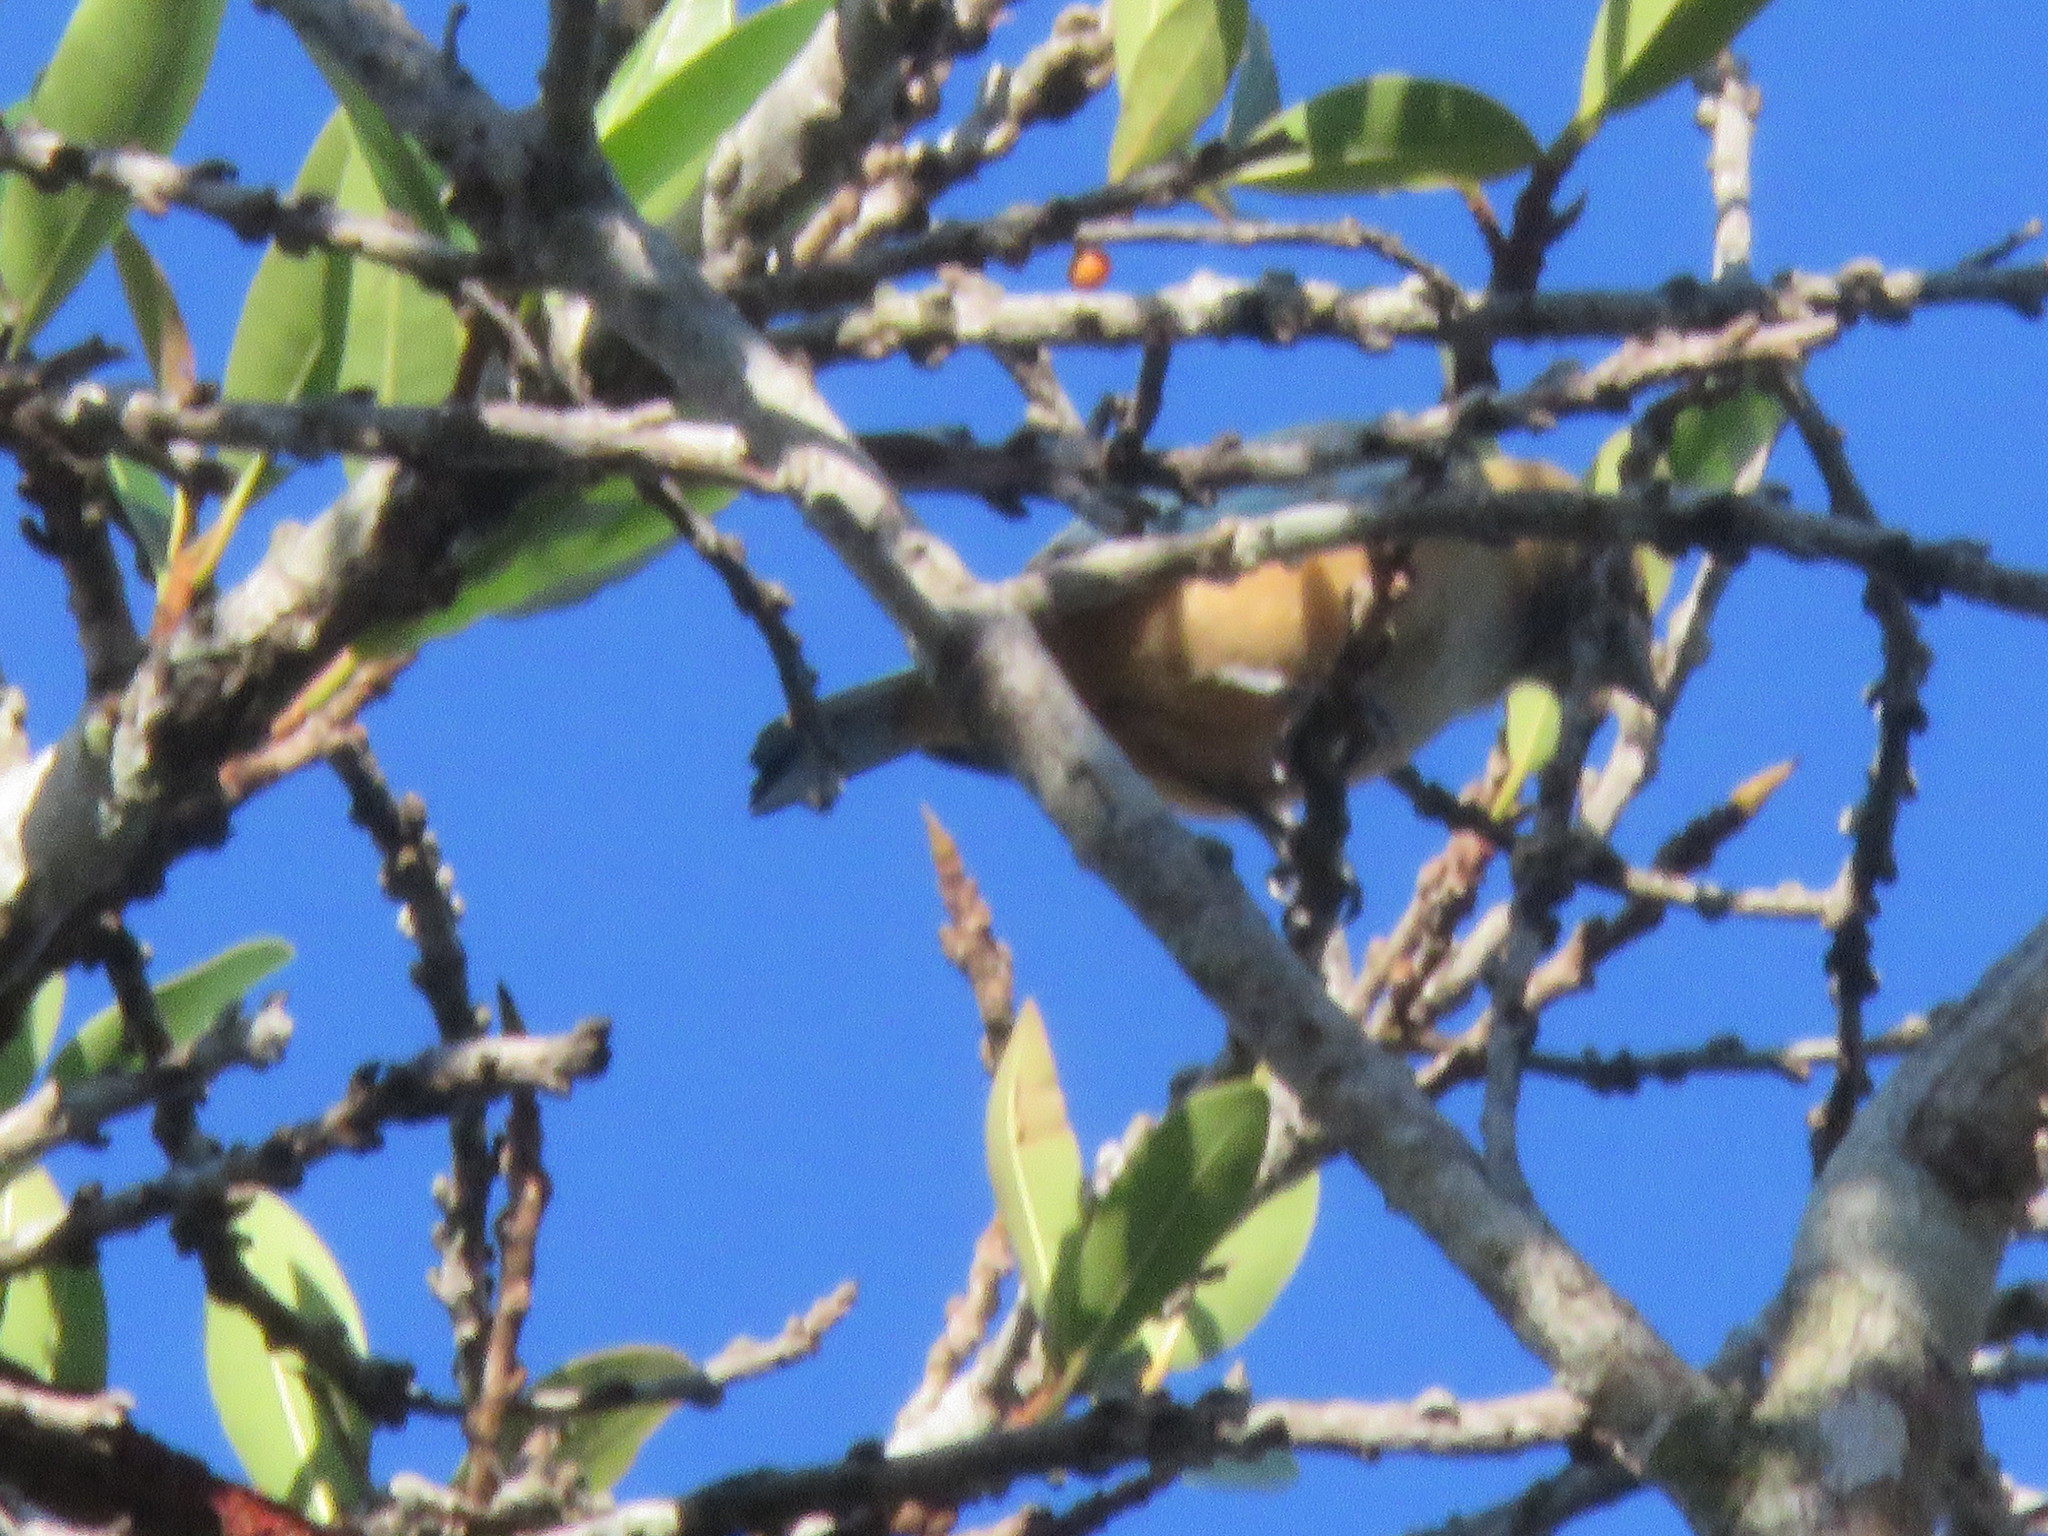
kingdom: Animalia
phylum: Chordata
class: Aves
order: Passeriformes
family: Thraupidae
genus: Stilpnia
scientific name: Stilpnia cayana
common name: Burnished-buff tanager
